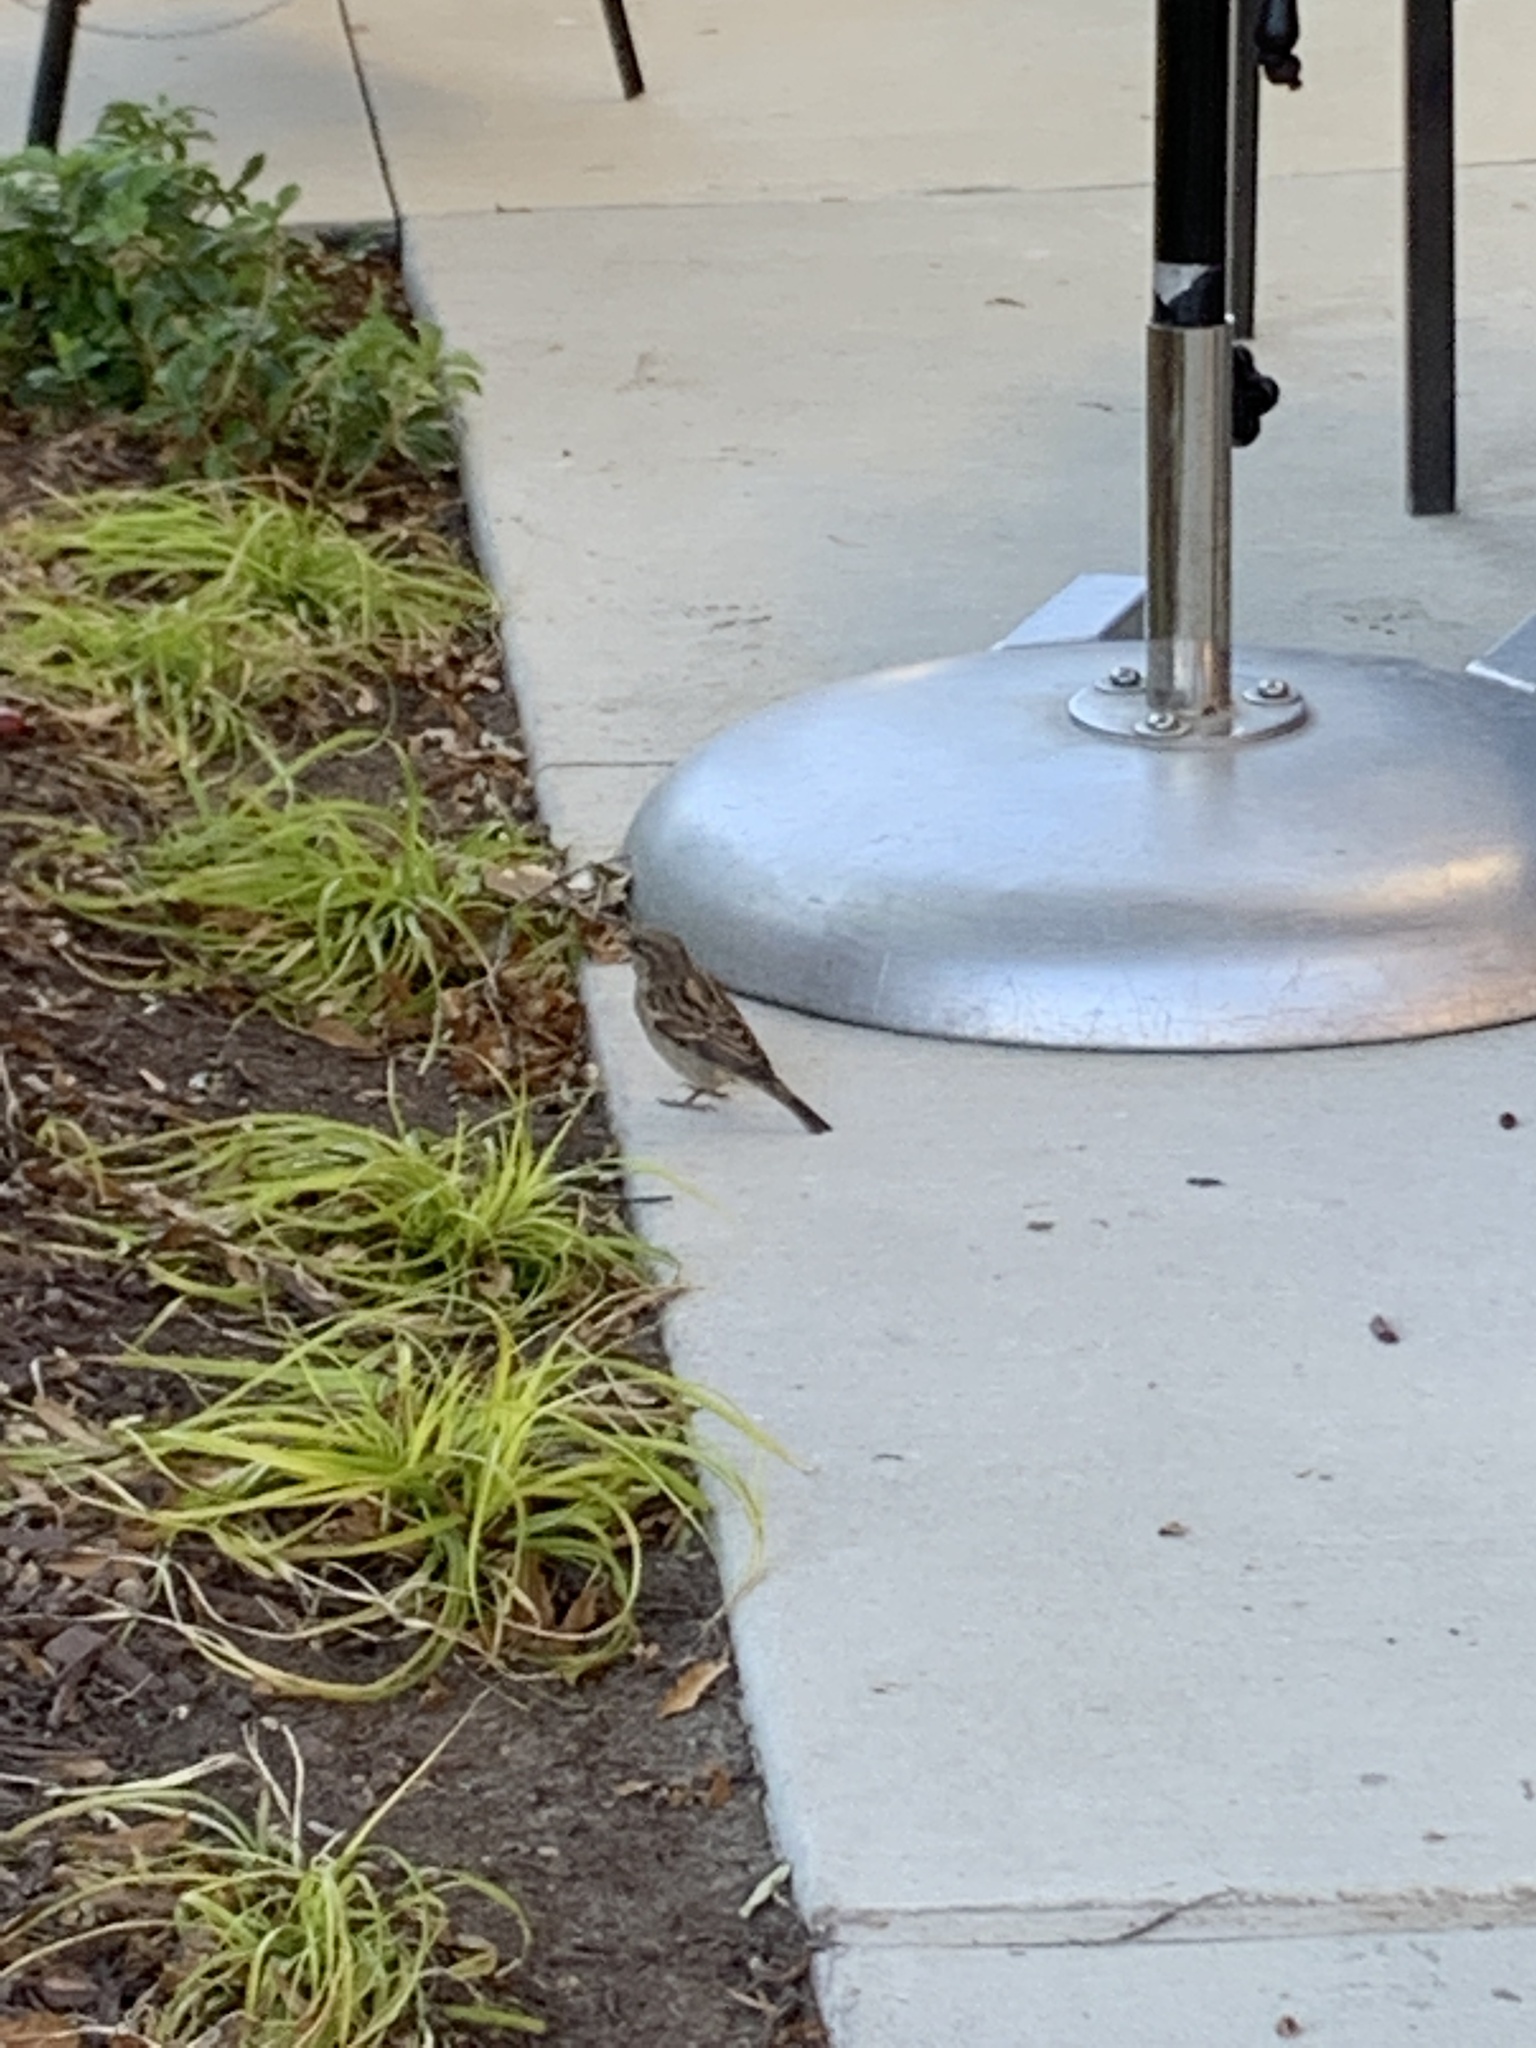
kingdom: Animalia
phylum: Chordata
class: Aves
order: Passeriformes
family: Passeridae
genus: Passer
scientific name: Passer domesticus
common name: House sparrow
